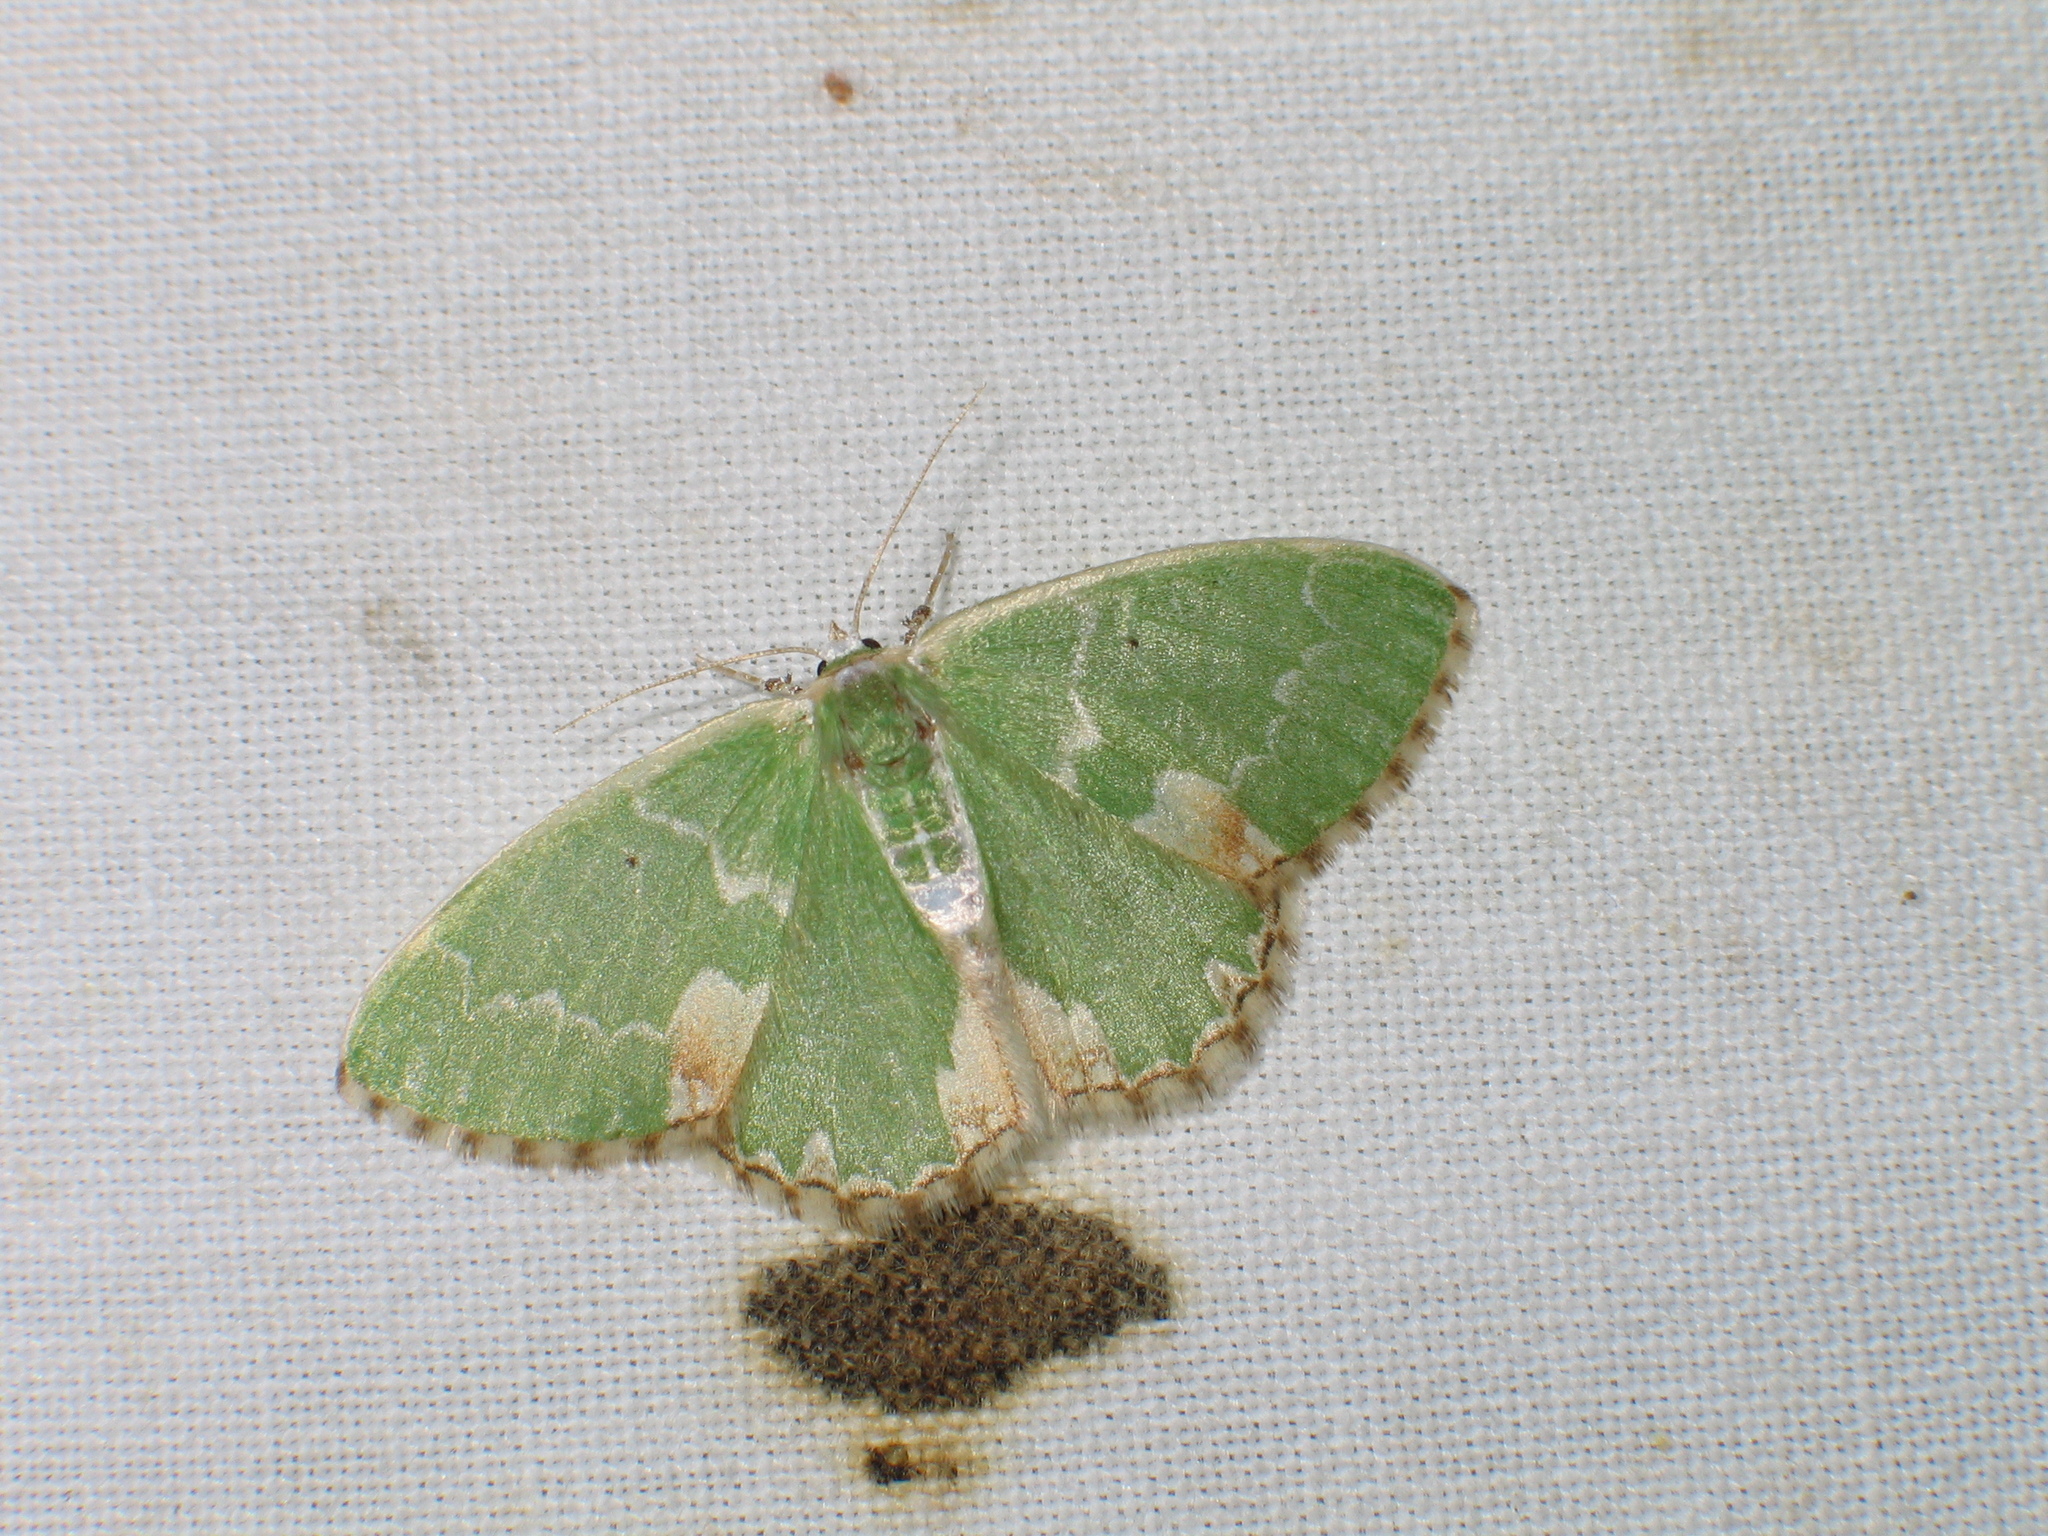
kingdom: Animalia
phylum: Arthropoda
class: Insecta
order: Lepidoptera
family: Geometridae
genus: Comibaena
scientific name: Comibaena bajularia
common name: Blotched emerald
